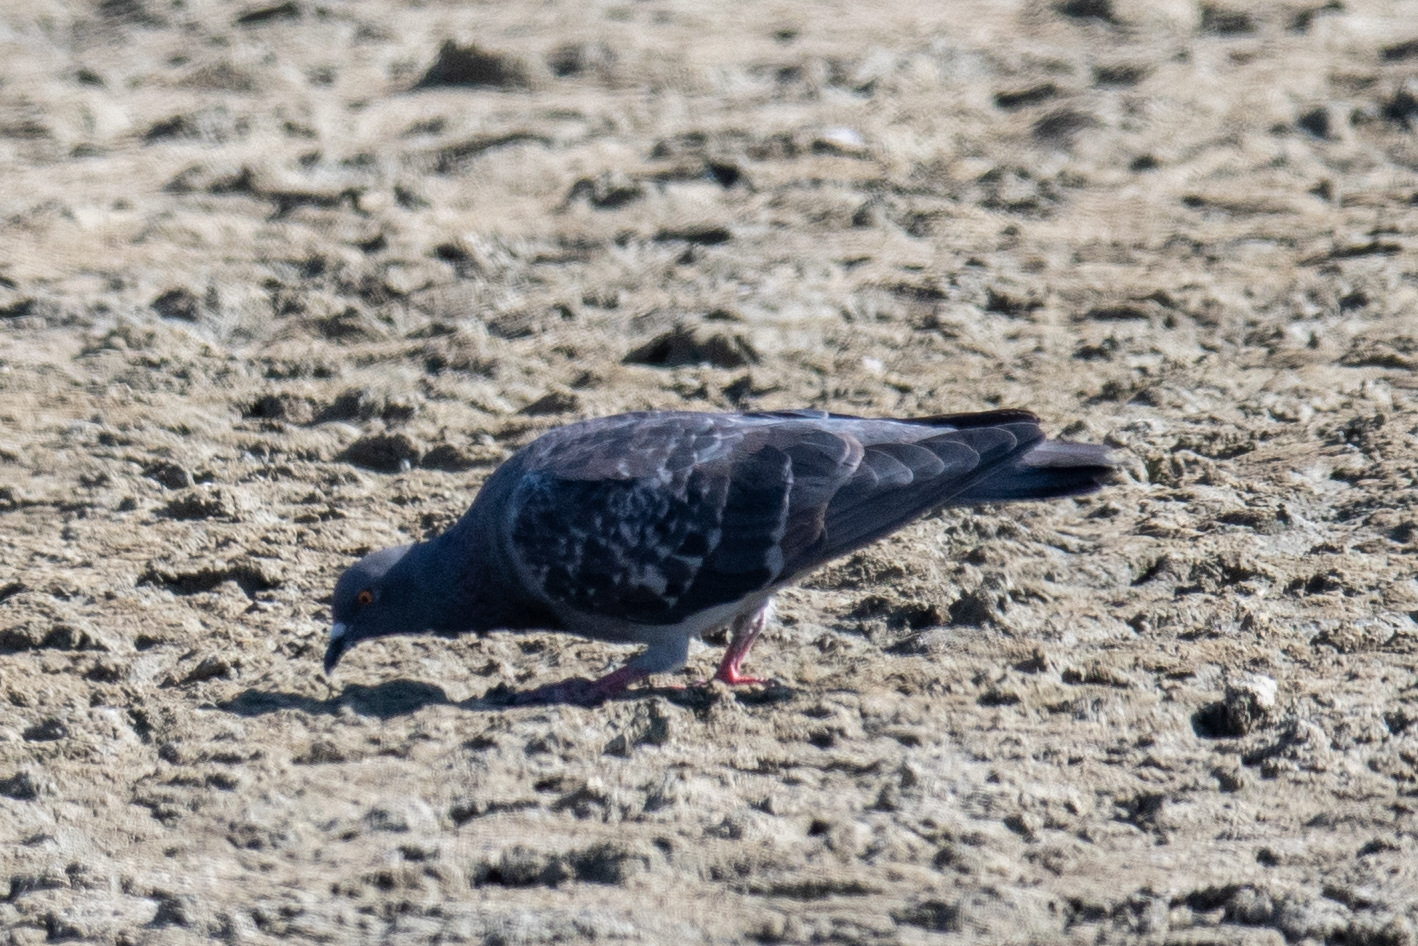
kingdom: Animalia
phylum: Chordata
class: Aves
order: Columbiformes
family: Columbidae
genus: Columba
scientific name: Columba livia
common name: Rock pigeon
